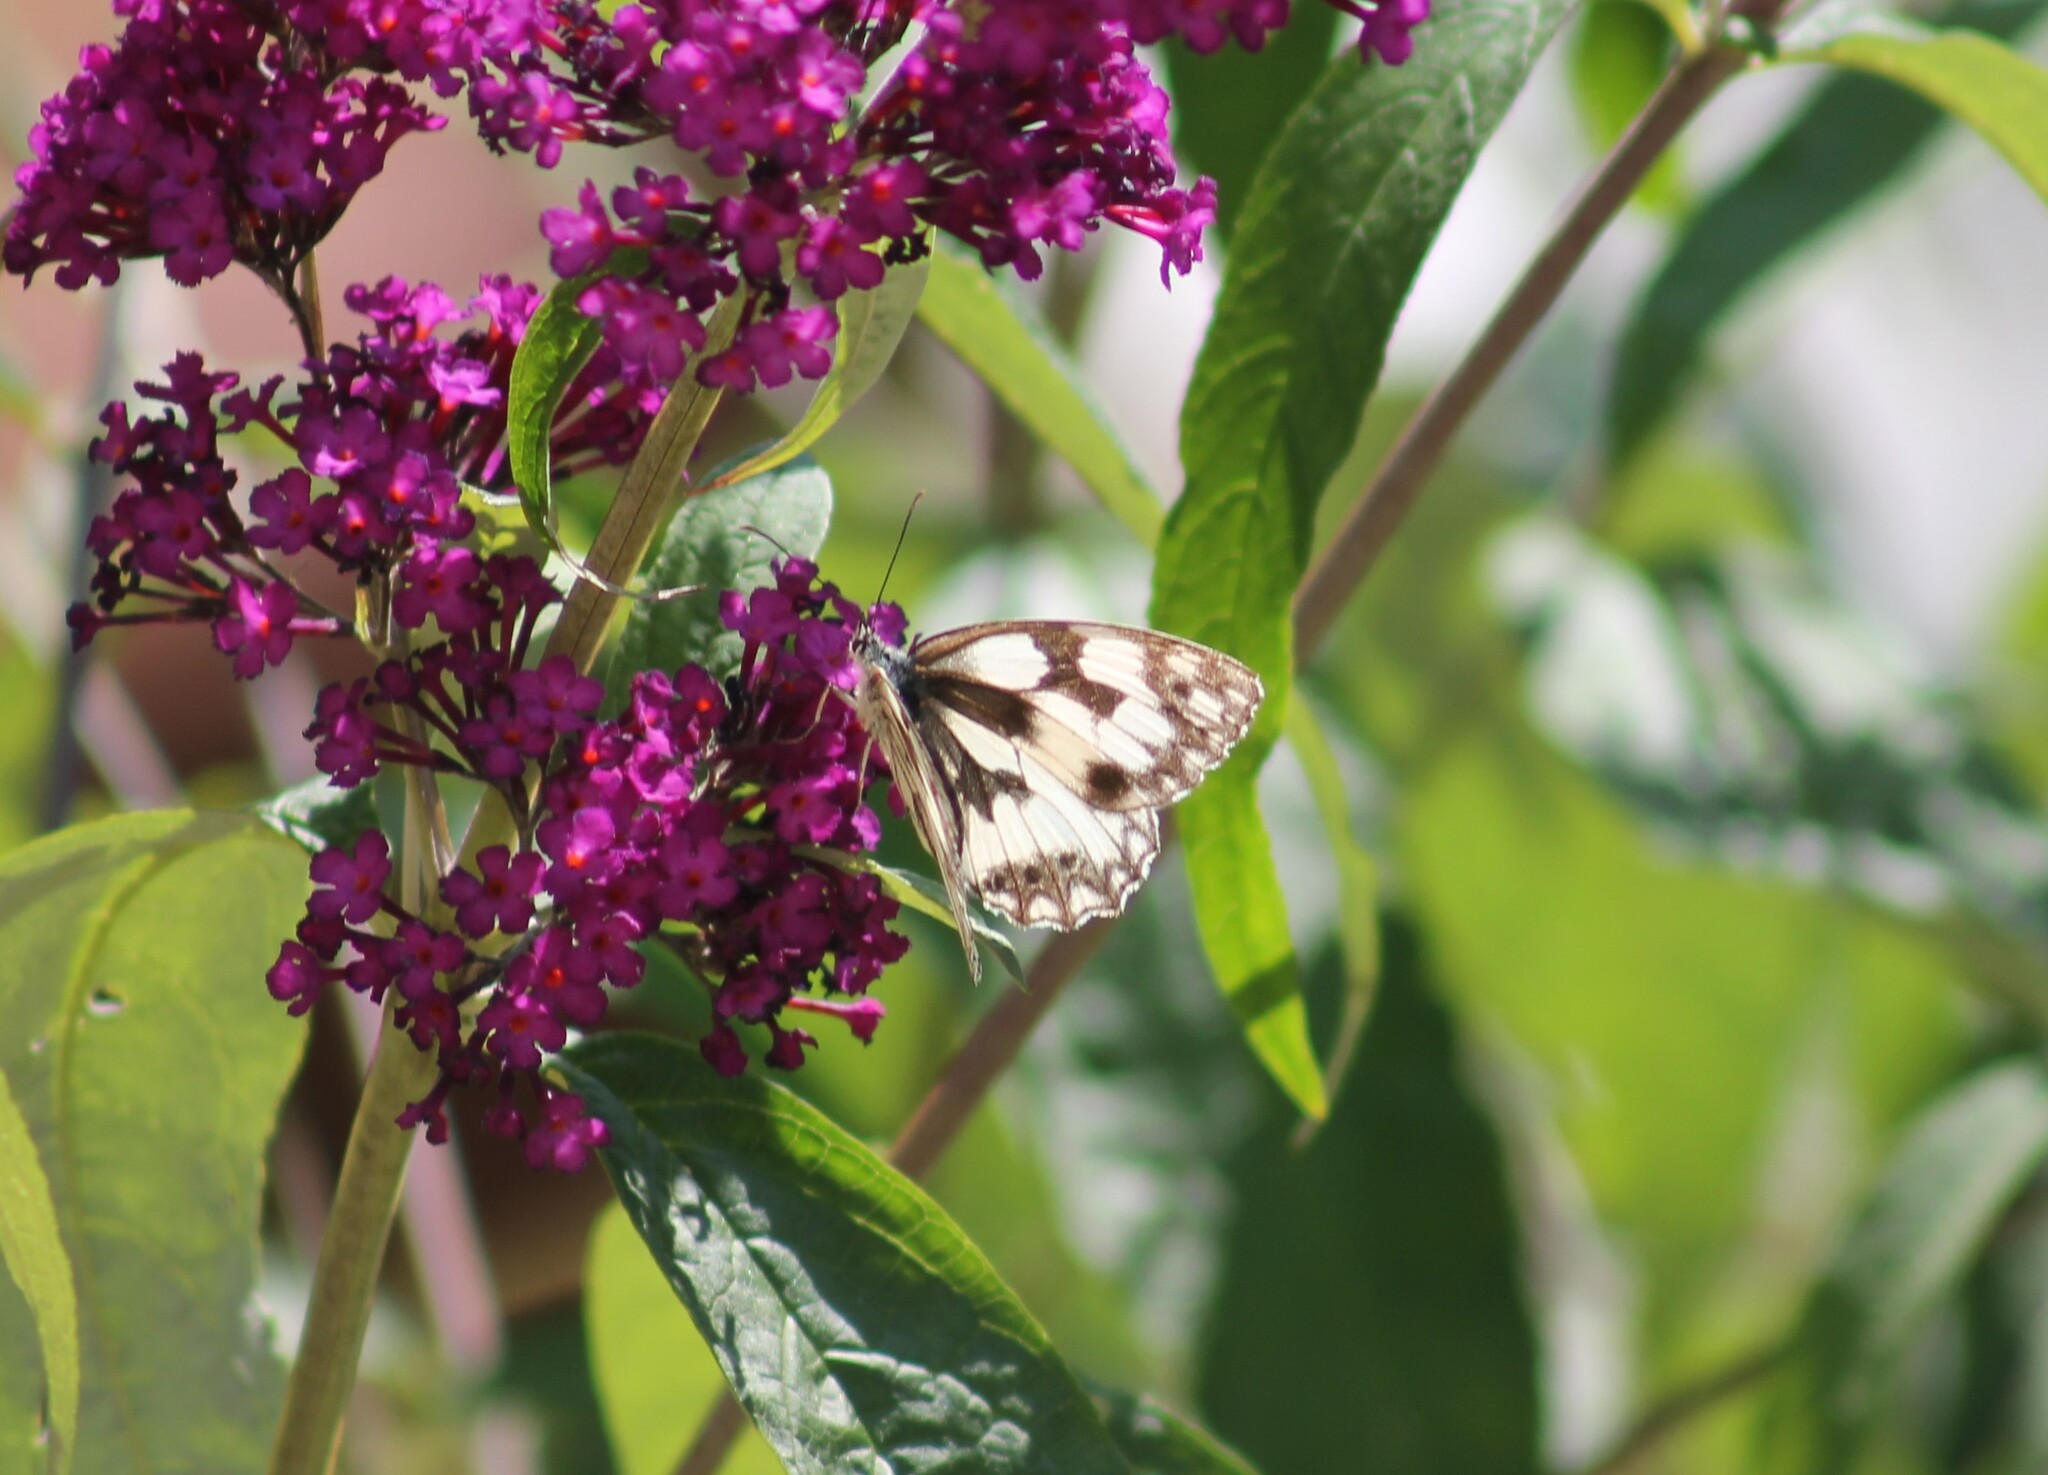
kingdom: Animalia
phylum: Arthropoda
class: Insecta
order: Lepidoptera
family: Nymphalidae
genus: Melanargia
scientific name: Melanargia galathea
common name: Marbled white
